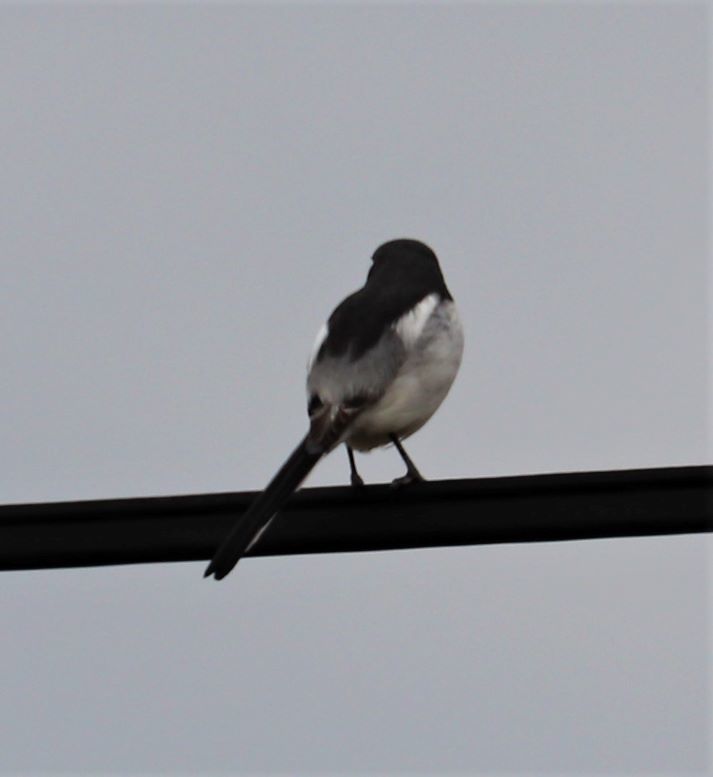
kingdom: Animalia
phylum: Chordata
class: Aves
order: Passeriformes
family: Laniidae
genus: Lanius
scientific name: Lanius collaris
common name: Southern fiscal
